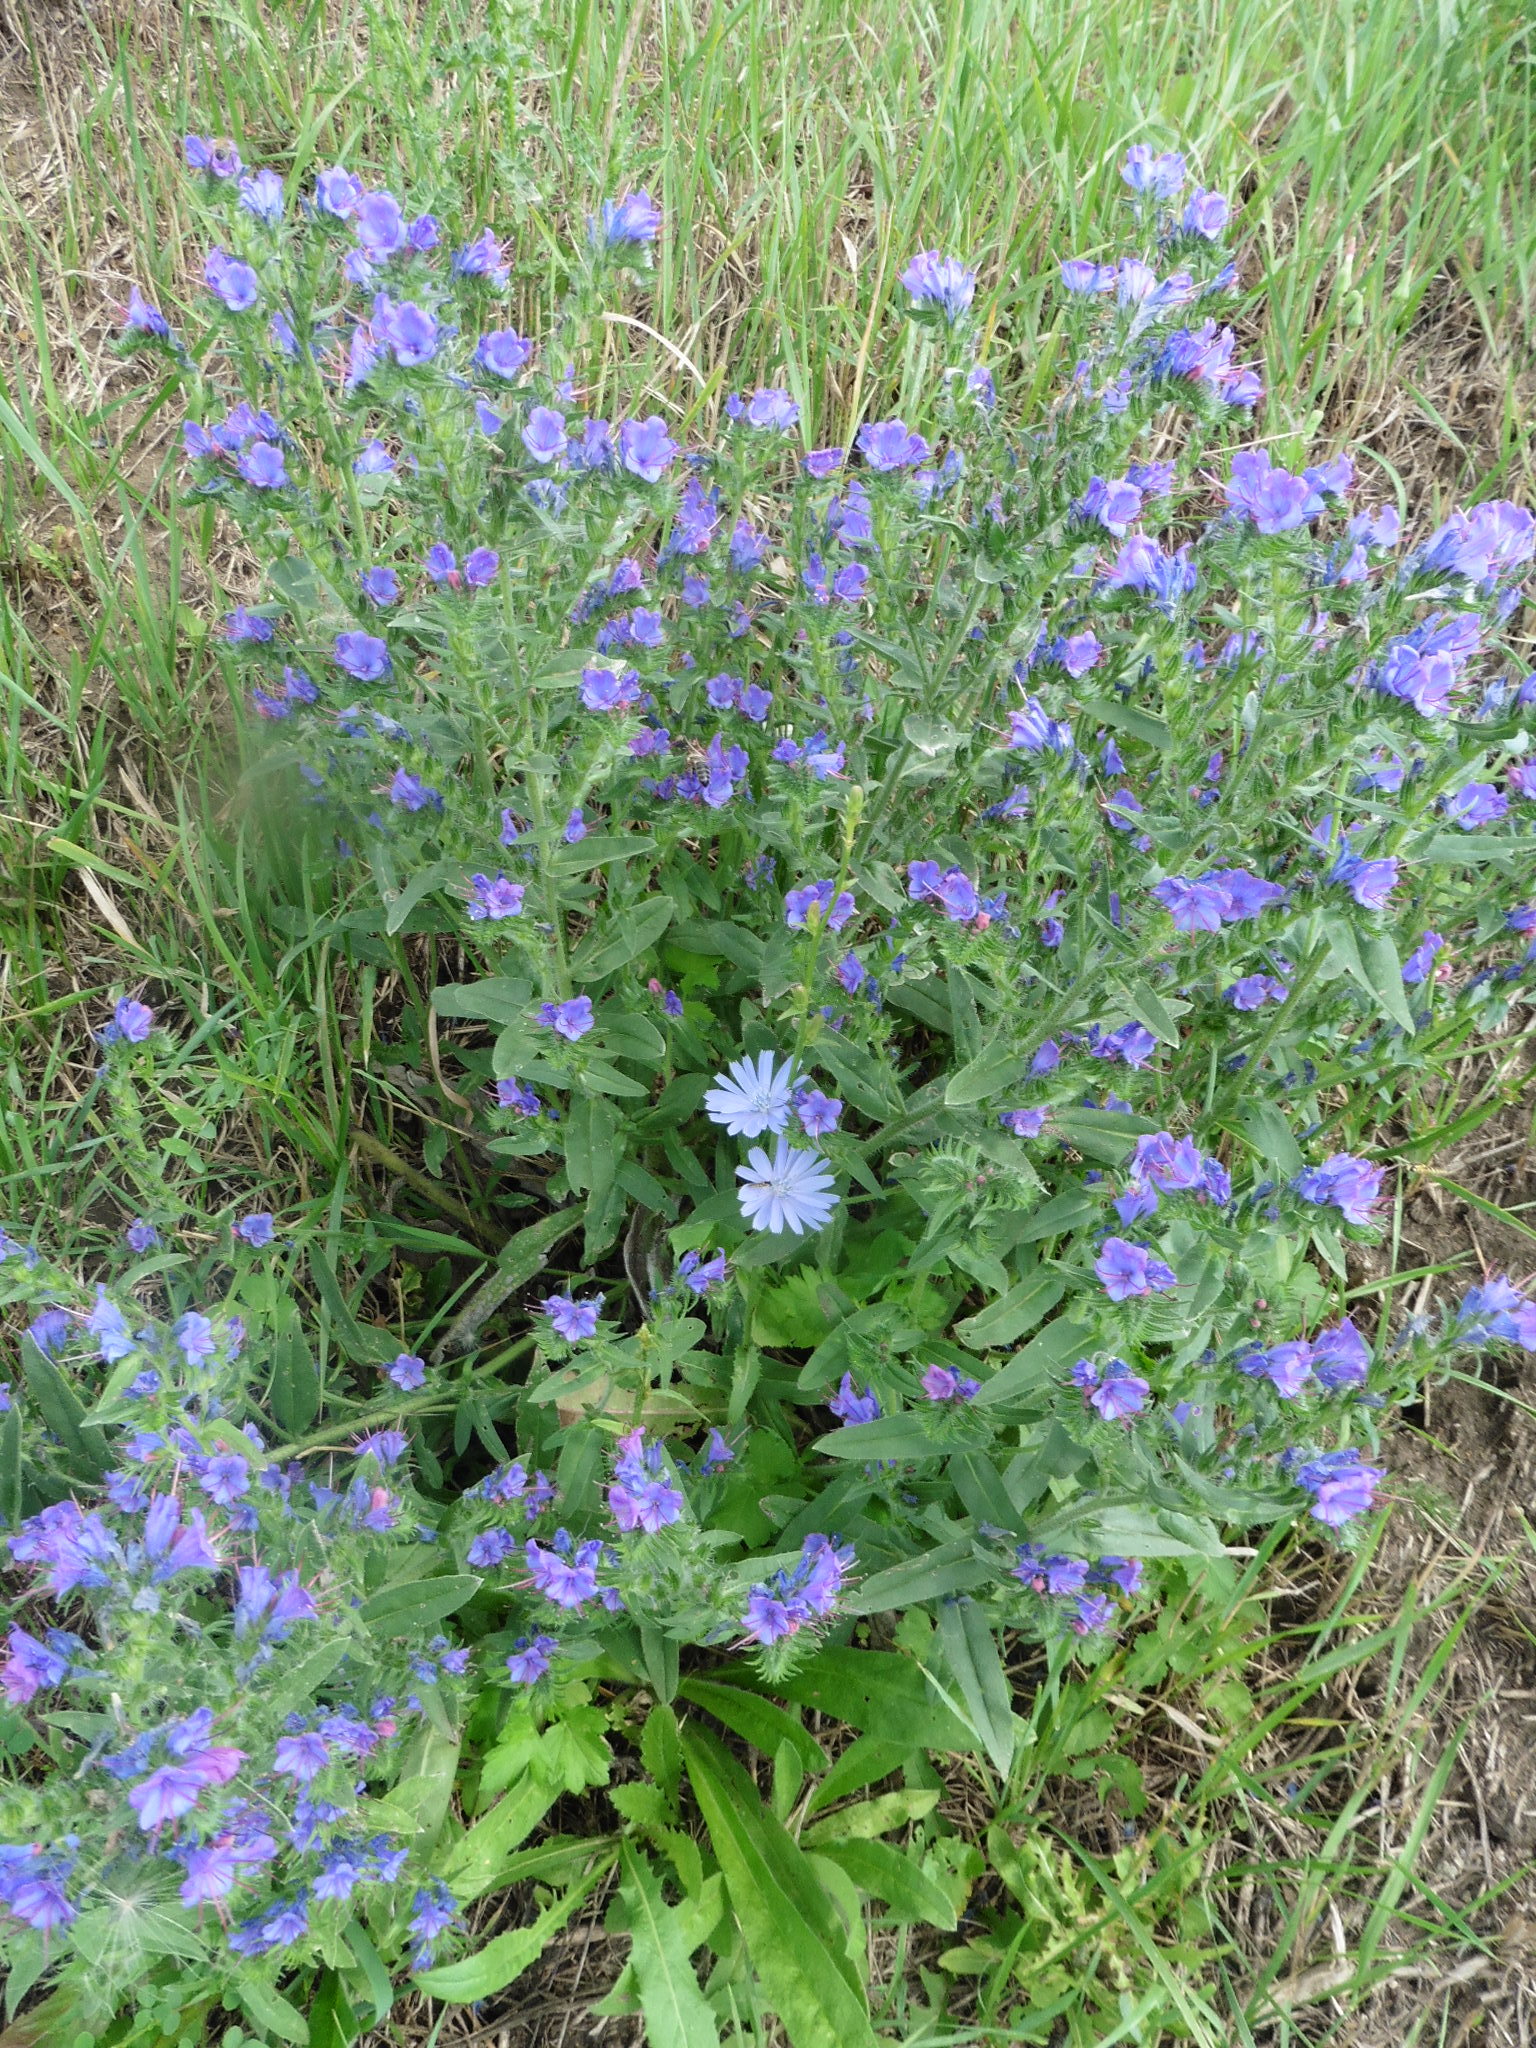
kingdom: Plantae
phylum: Tracheophyta
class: Magnoliopsida
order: Boraginales
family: Boraginaceae
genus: Echium
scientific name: Echium vulgare
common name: Common viper's bugloss
